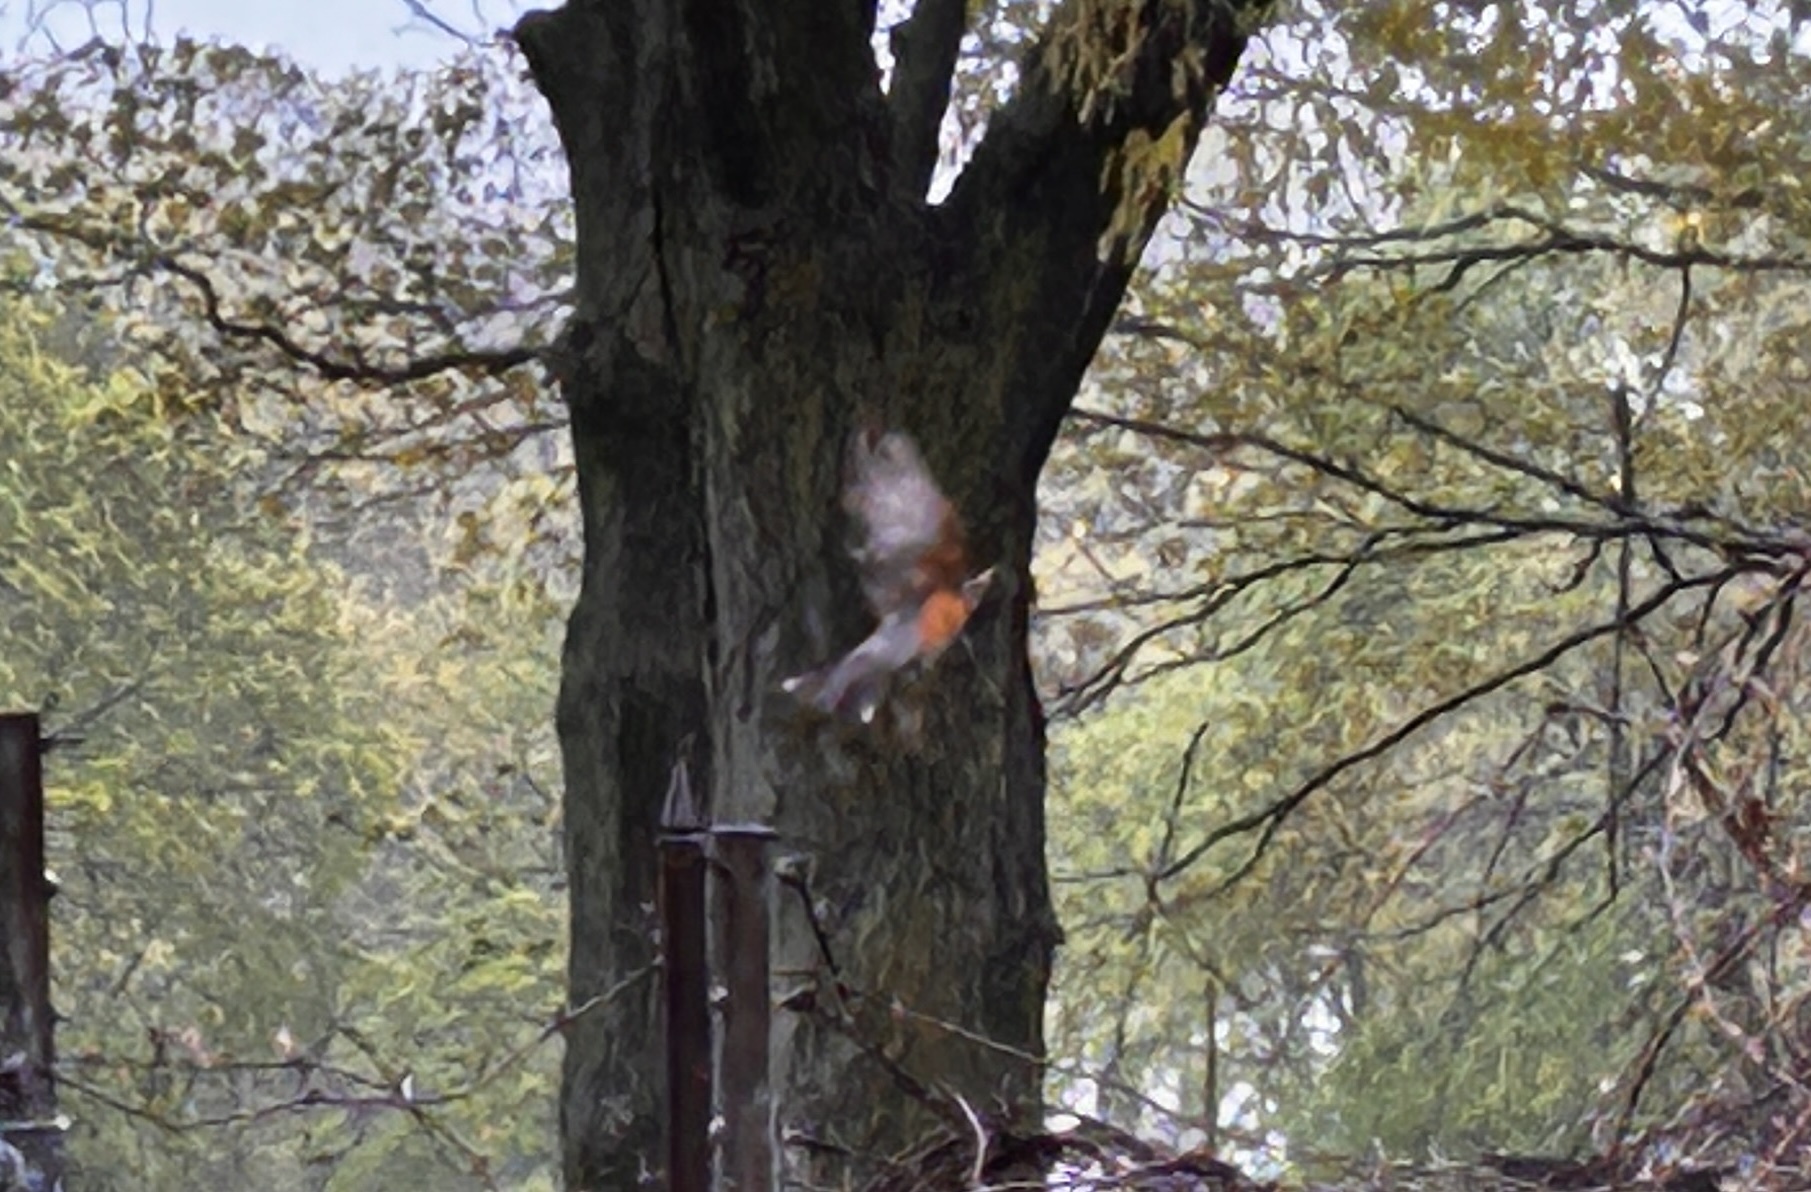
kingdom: Animalia
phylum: Chordata
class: Aves
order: Passeriformes
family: Turdidae
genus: Turdus
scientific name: Turdus migratorius
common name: American robin
